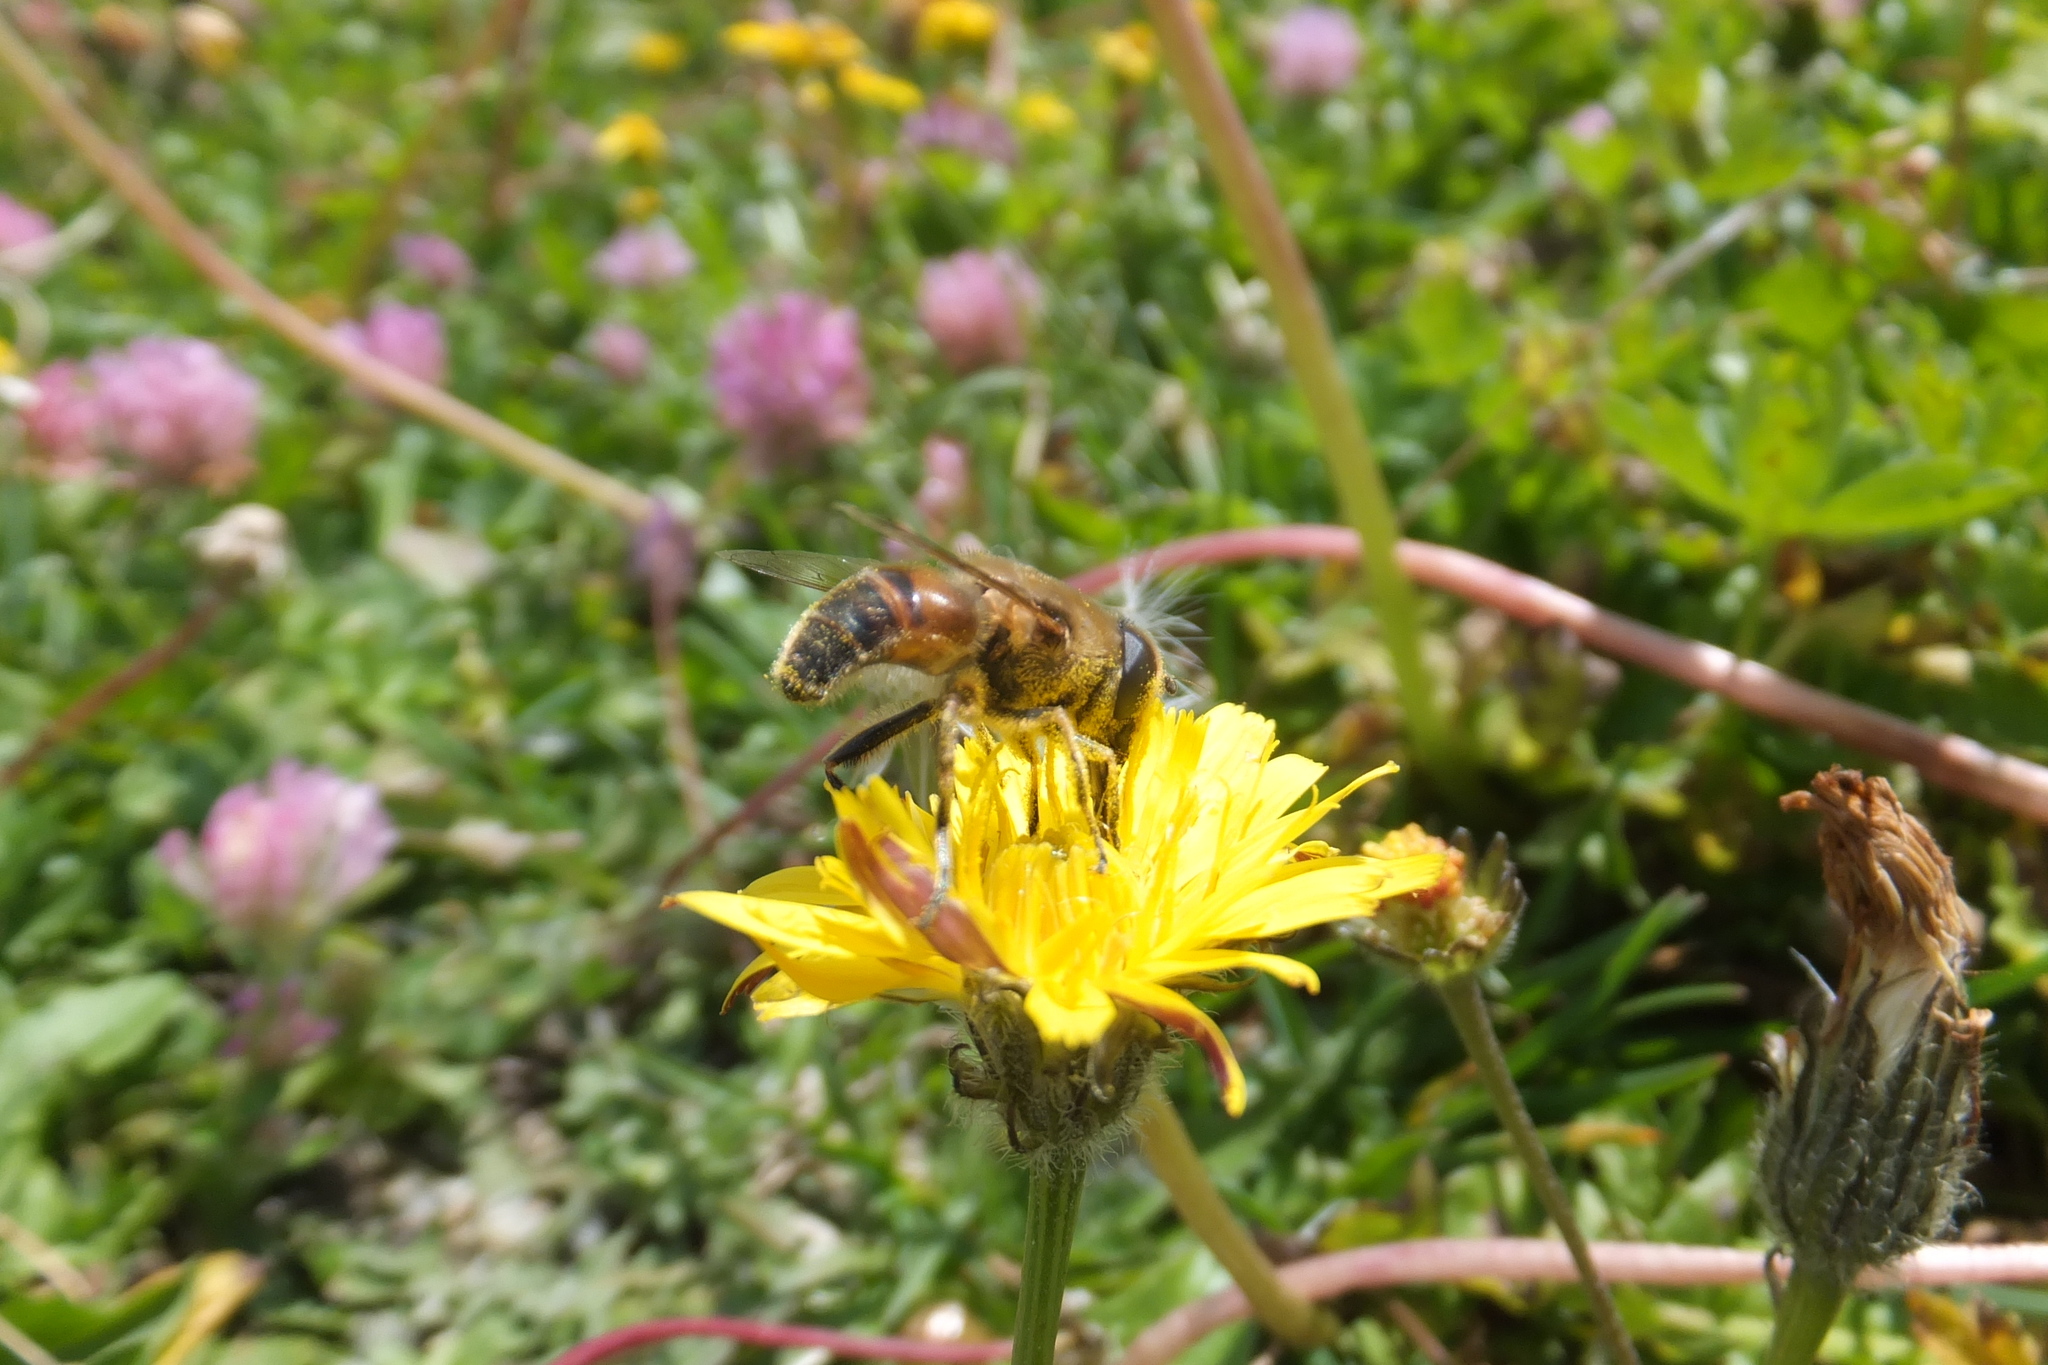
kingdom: Animalia
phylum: Arthropoda
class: Insecta
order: Diptera
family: Syrphidae
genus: Eristalis
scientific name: Eristalis tenax
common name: Drone fly
